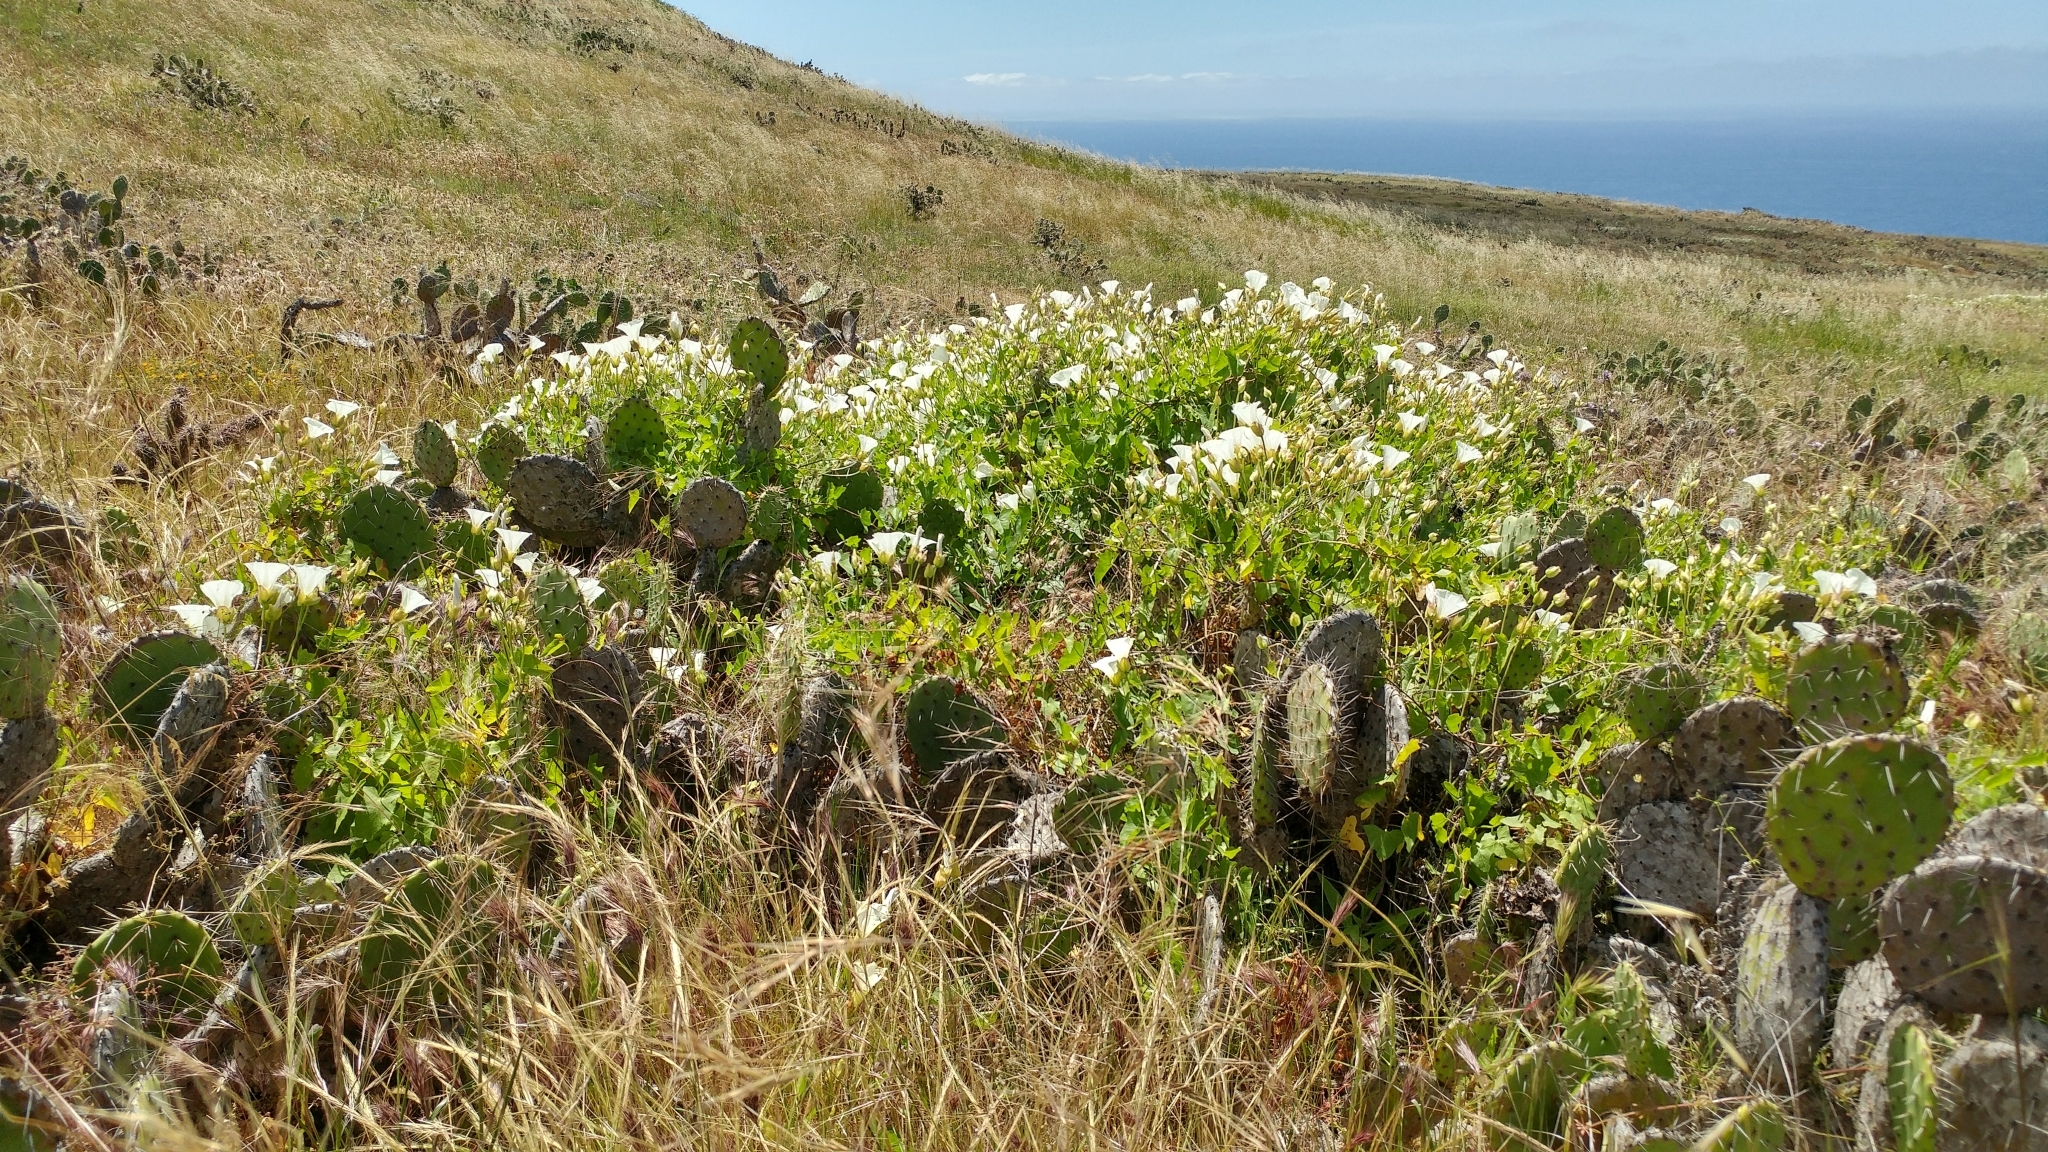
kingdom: Plantae
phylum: Tracheophyta
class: Magnoliopsida
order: Solanales
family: Convolvulaceae
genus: Calystegia
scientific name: Calystegia macrostegia
